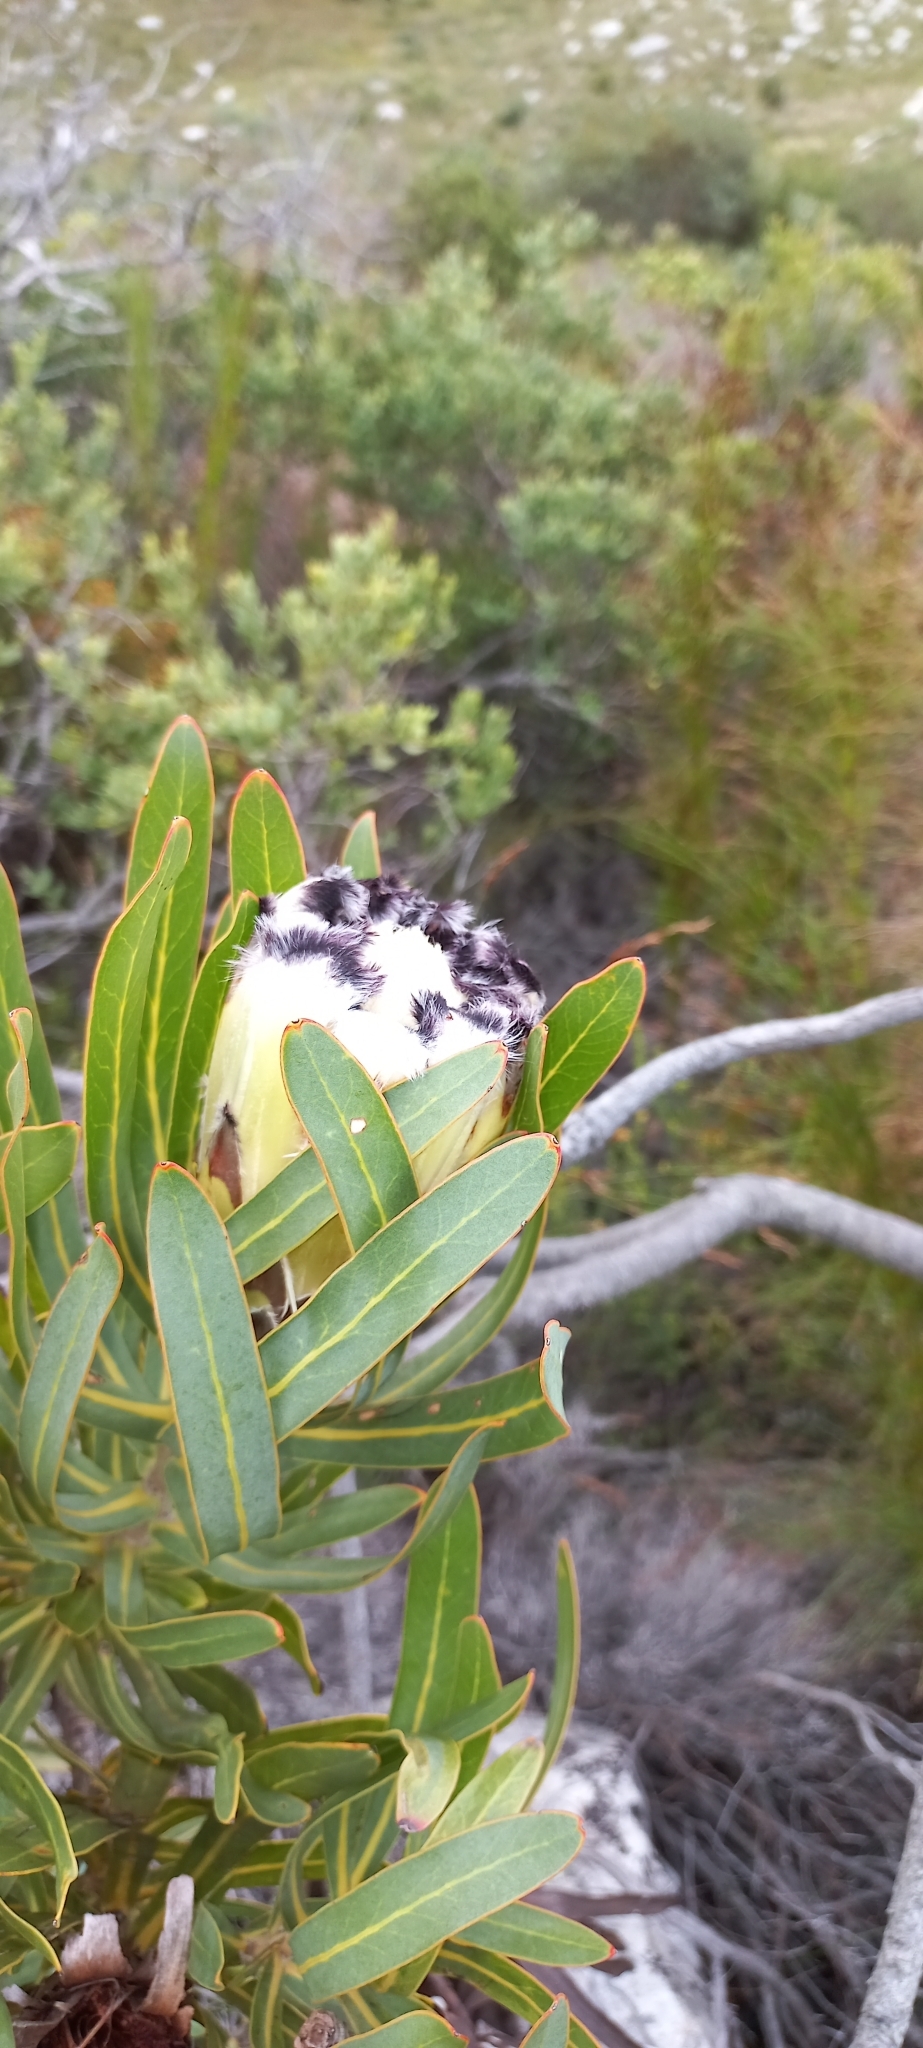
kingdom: Plantae
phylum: Tracheophyta
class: Magnoliopsida
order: Proteales
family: Proteaceae
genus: Protea
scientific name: Protea
